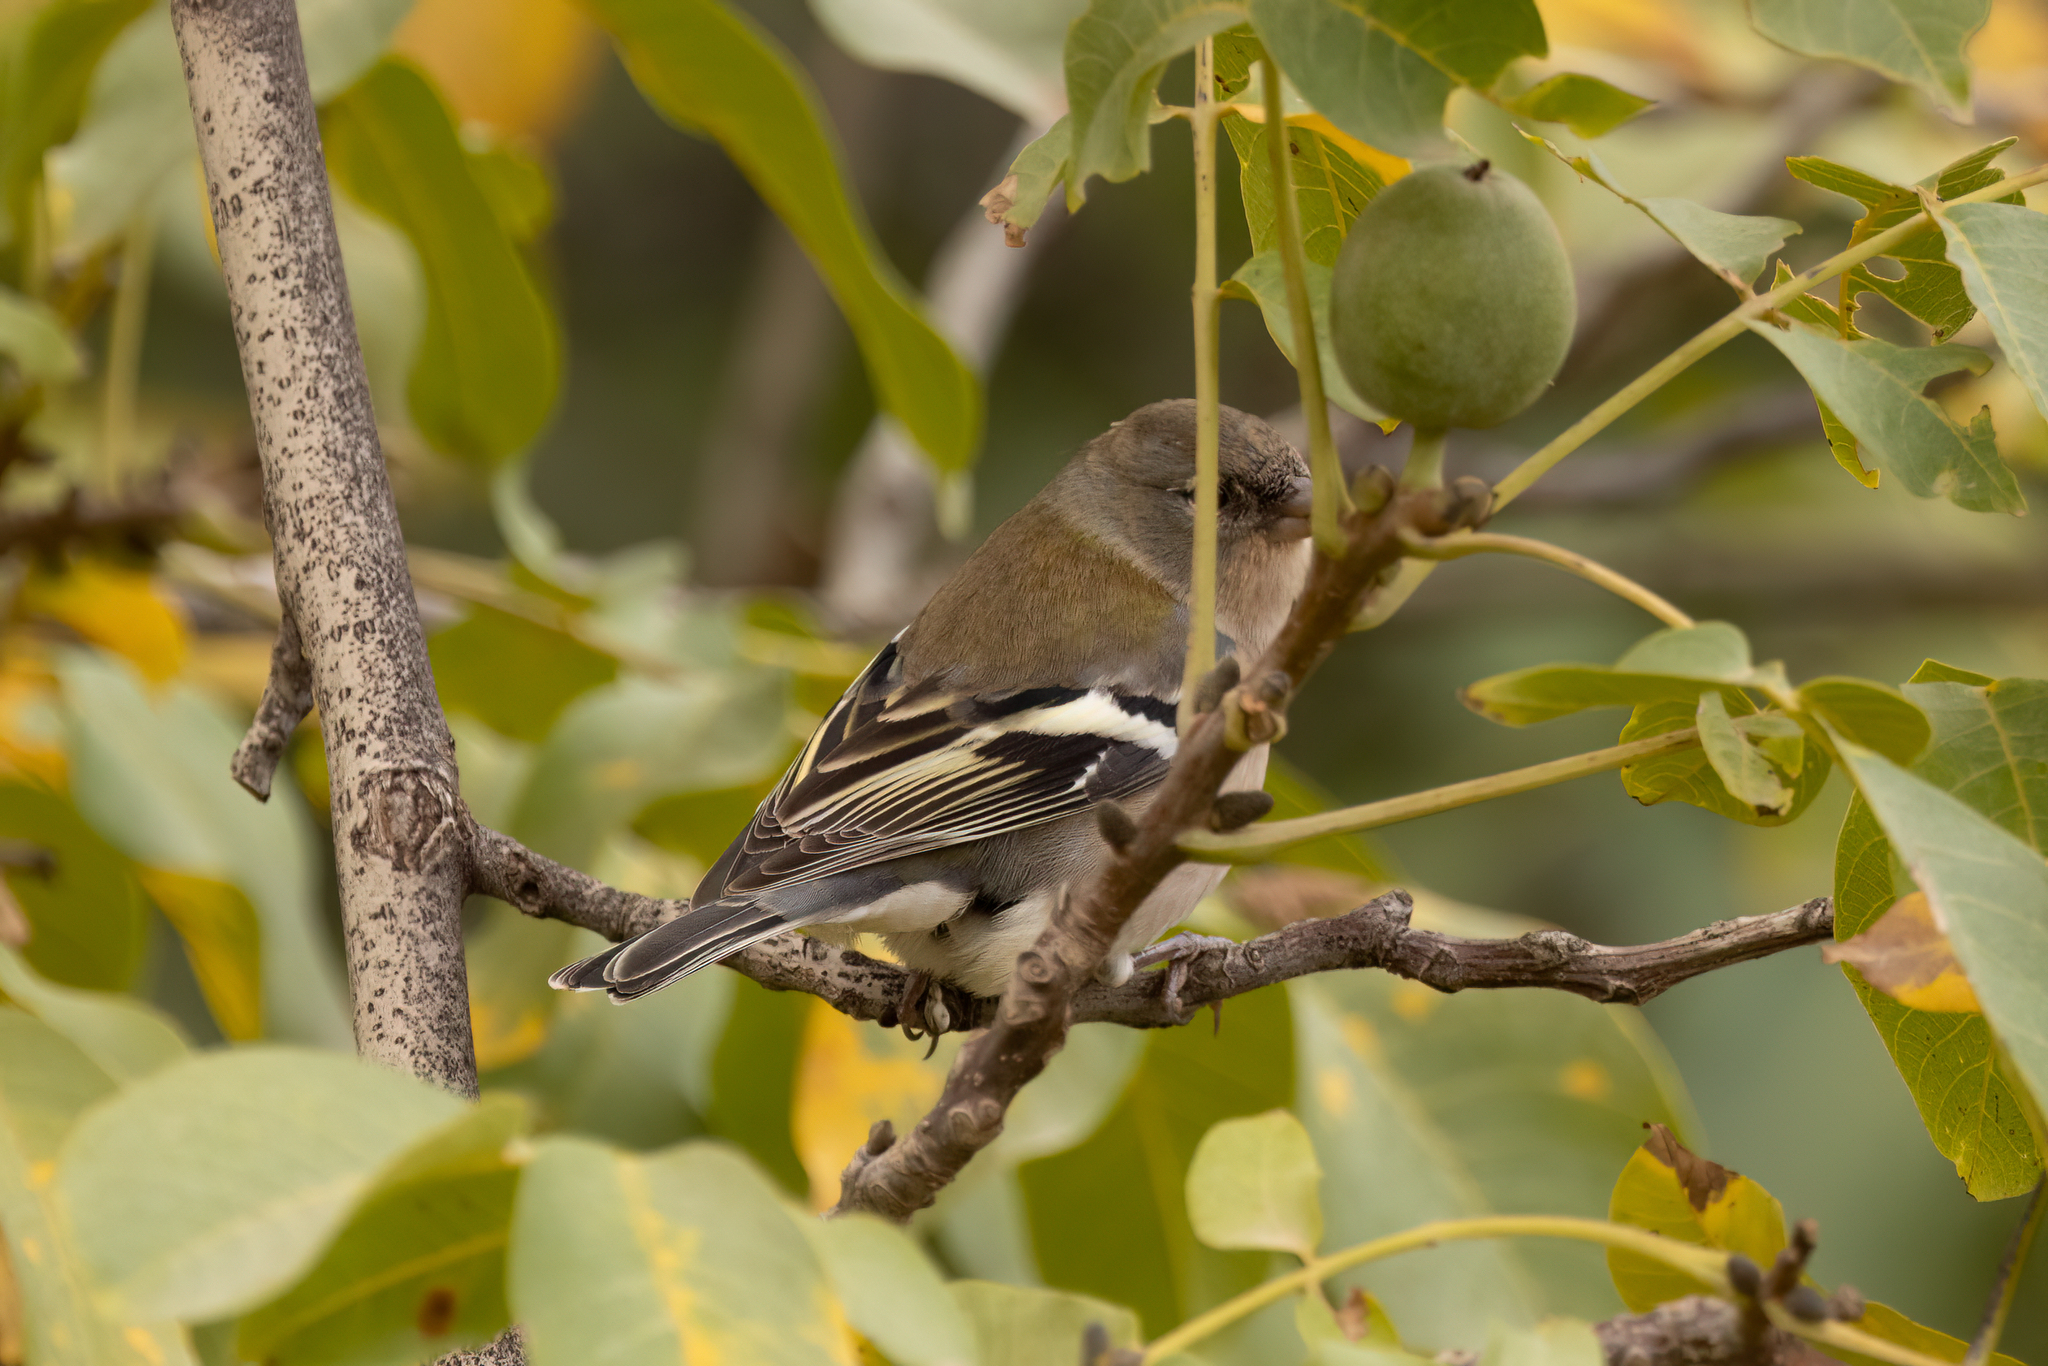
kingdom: Animalia
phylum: Chordata
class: Aves
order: Passeriformes
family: Fringillidae
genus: Fringilla
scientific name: Fringilla spodiogenys
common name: African chaffinch
